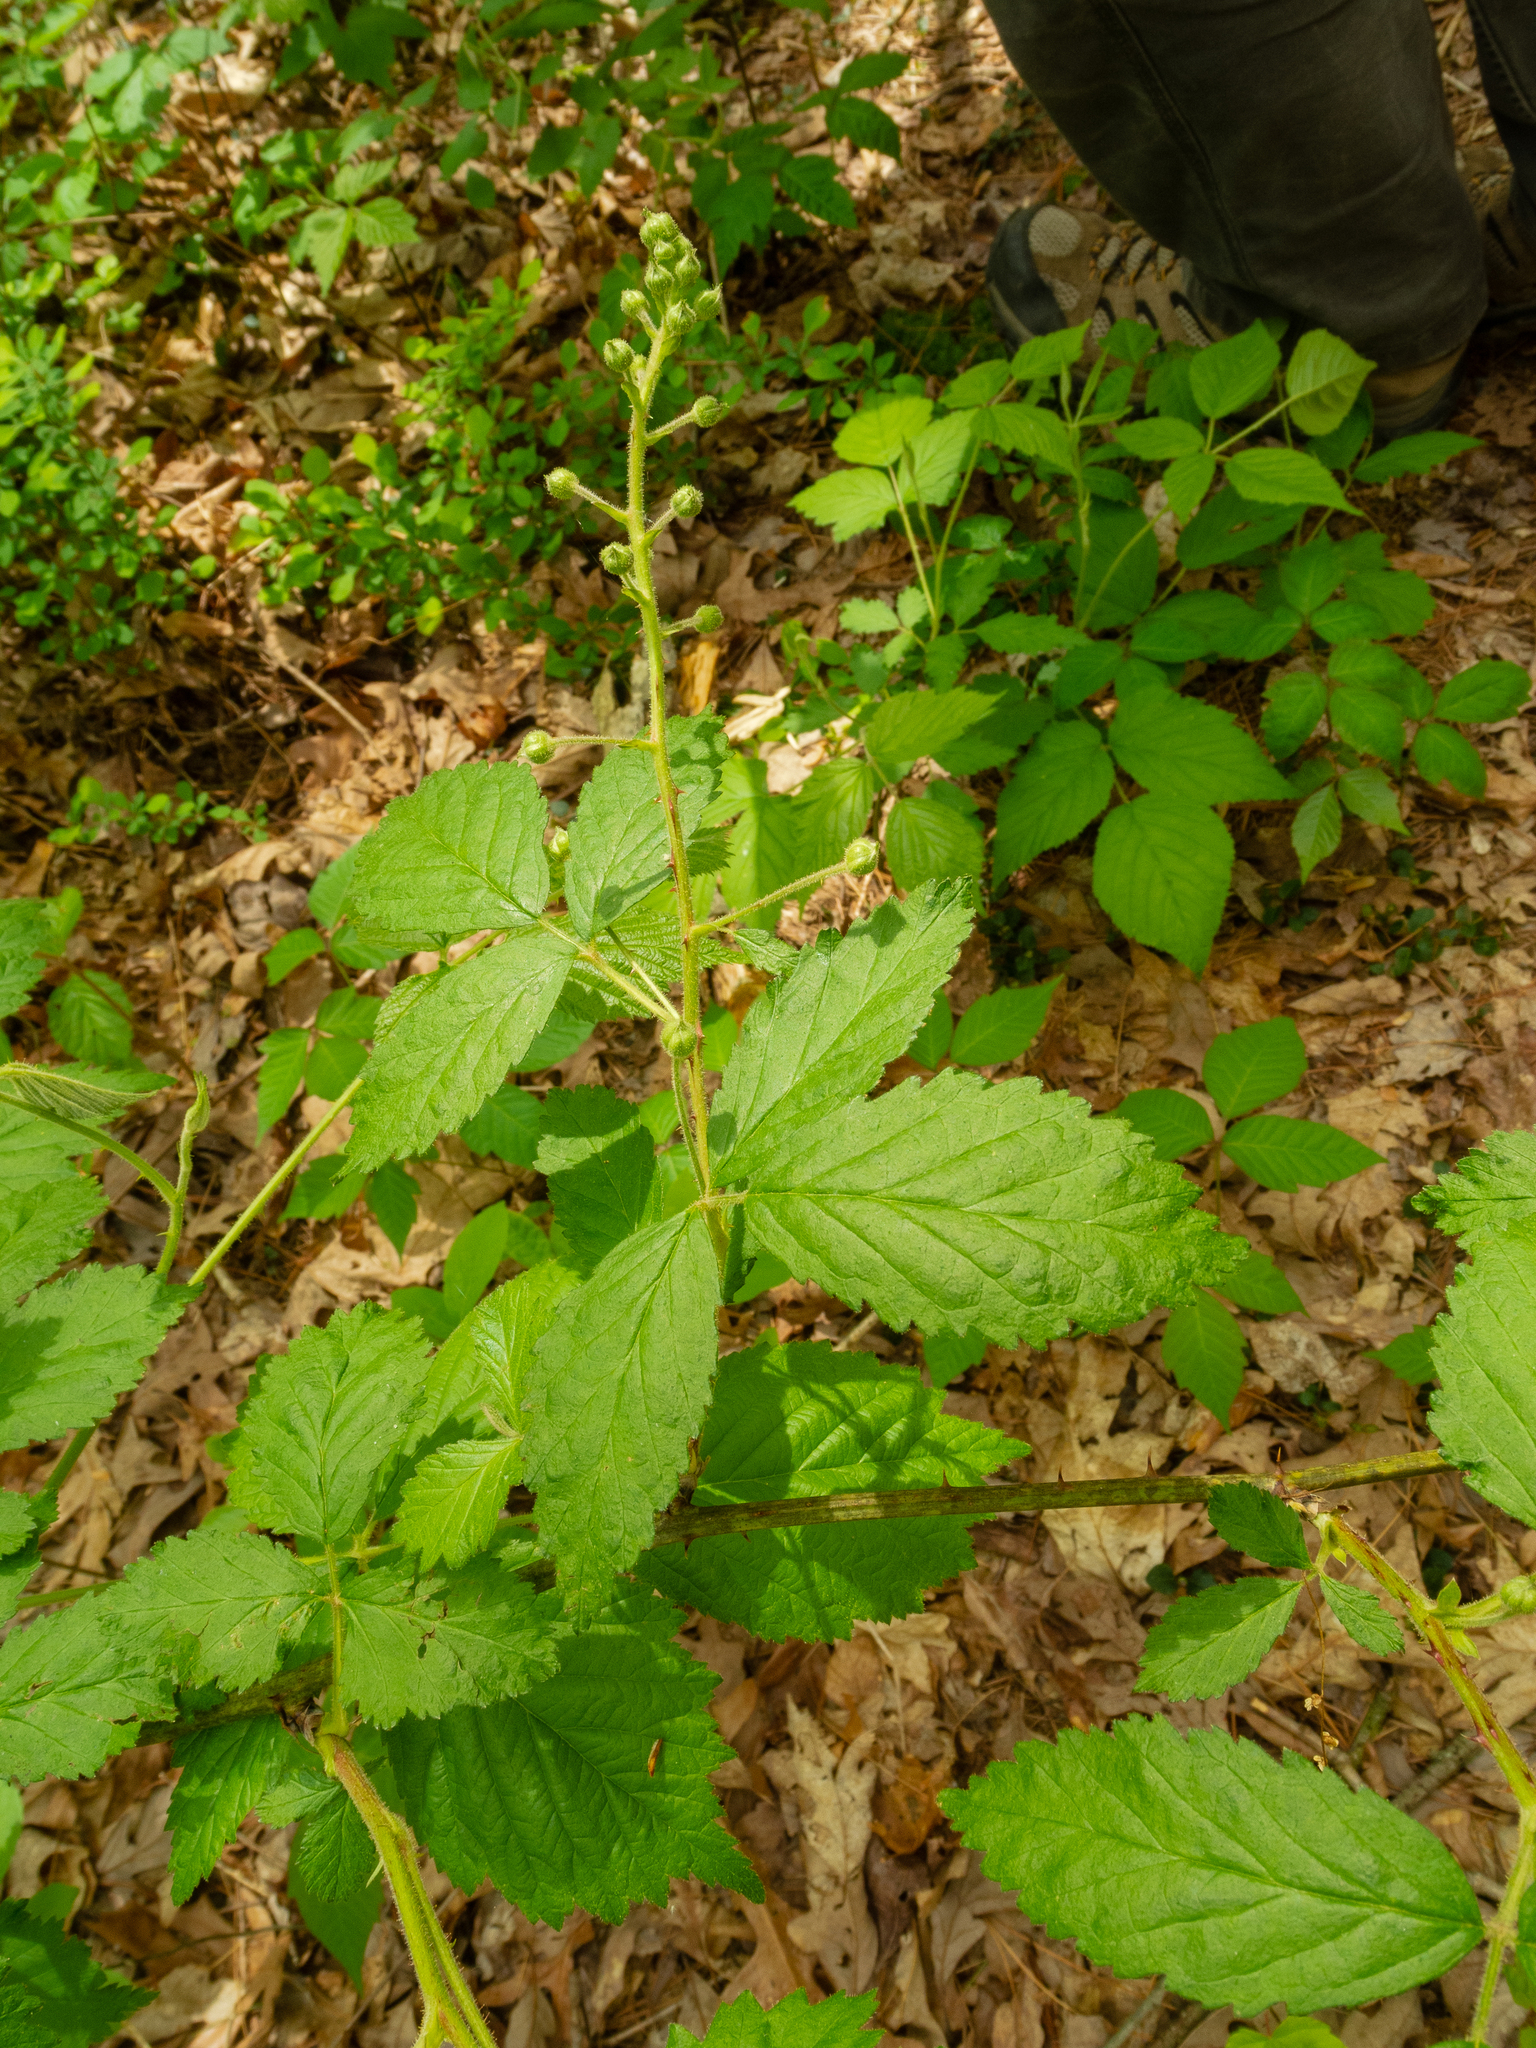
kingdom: Plantae
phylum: Tracheophyta
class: Magnoliopsida
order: Rosales
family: Rosaceae
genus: Rubus
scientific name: Rubus allegheniensis
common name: Allegheny blackberry
